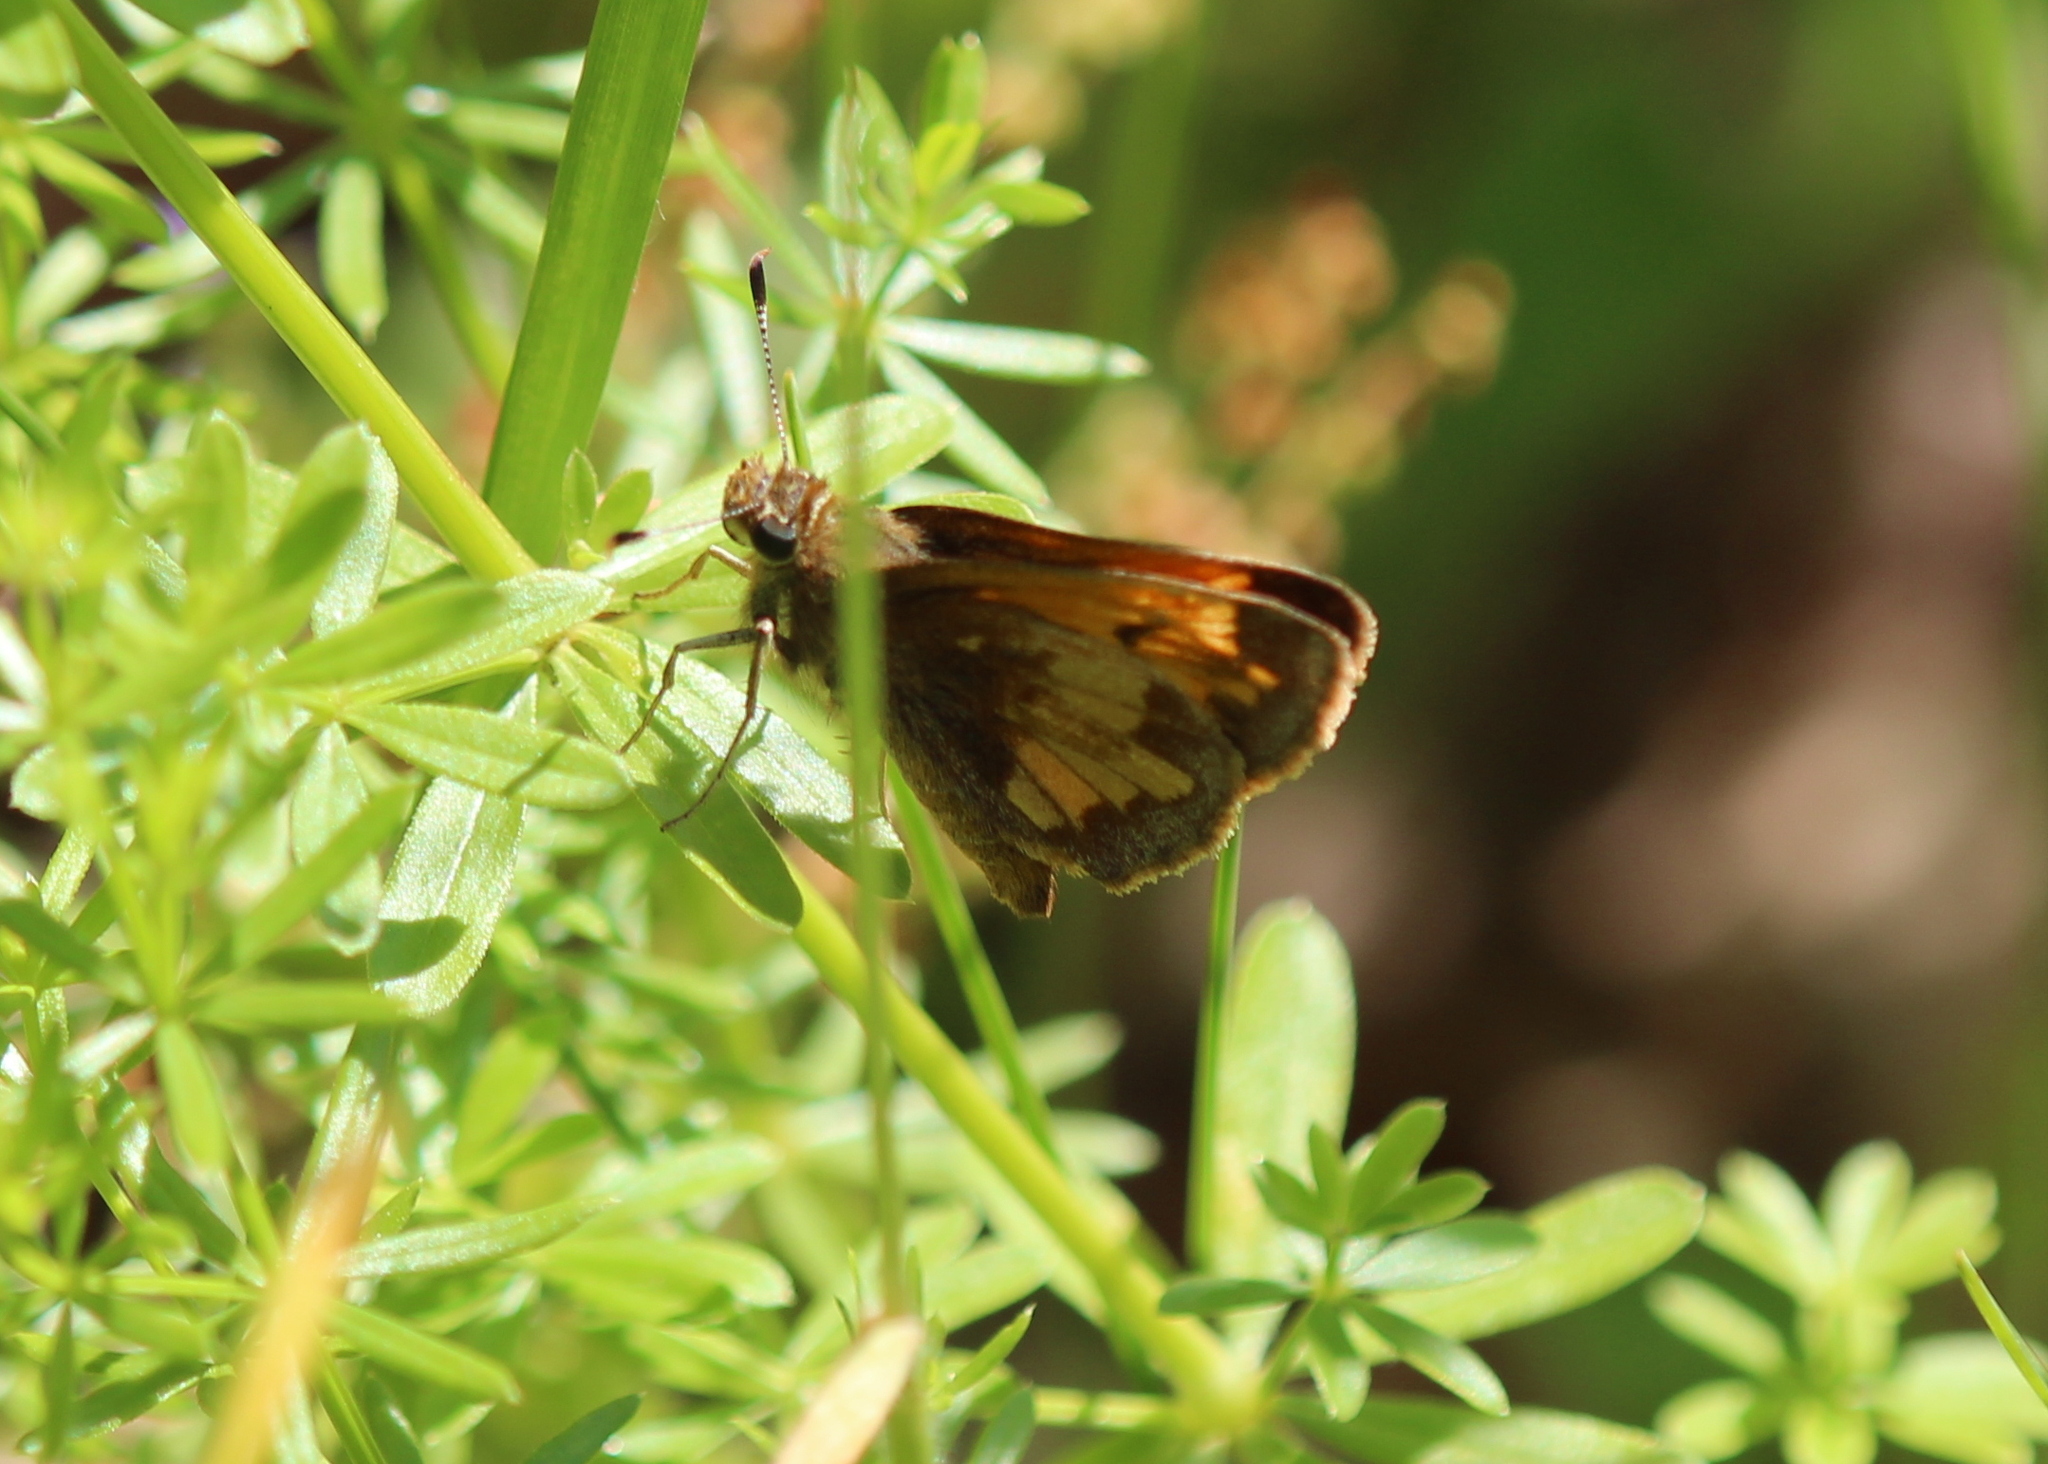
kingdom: Animalia
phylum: Arthropoda
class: Insecta
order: Lepidoptera
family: Hesperiidae
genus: Lon
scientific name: Lon hobomok
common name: Hobomok skipper
